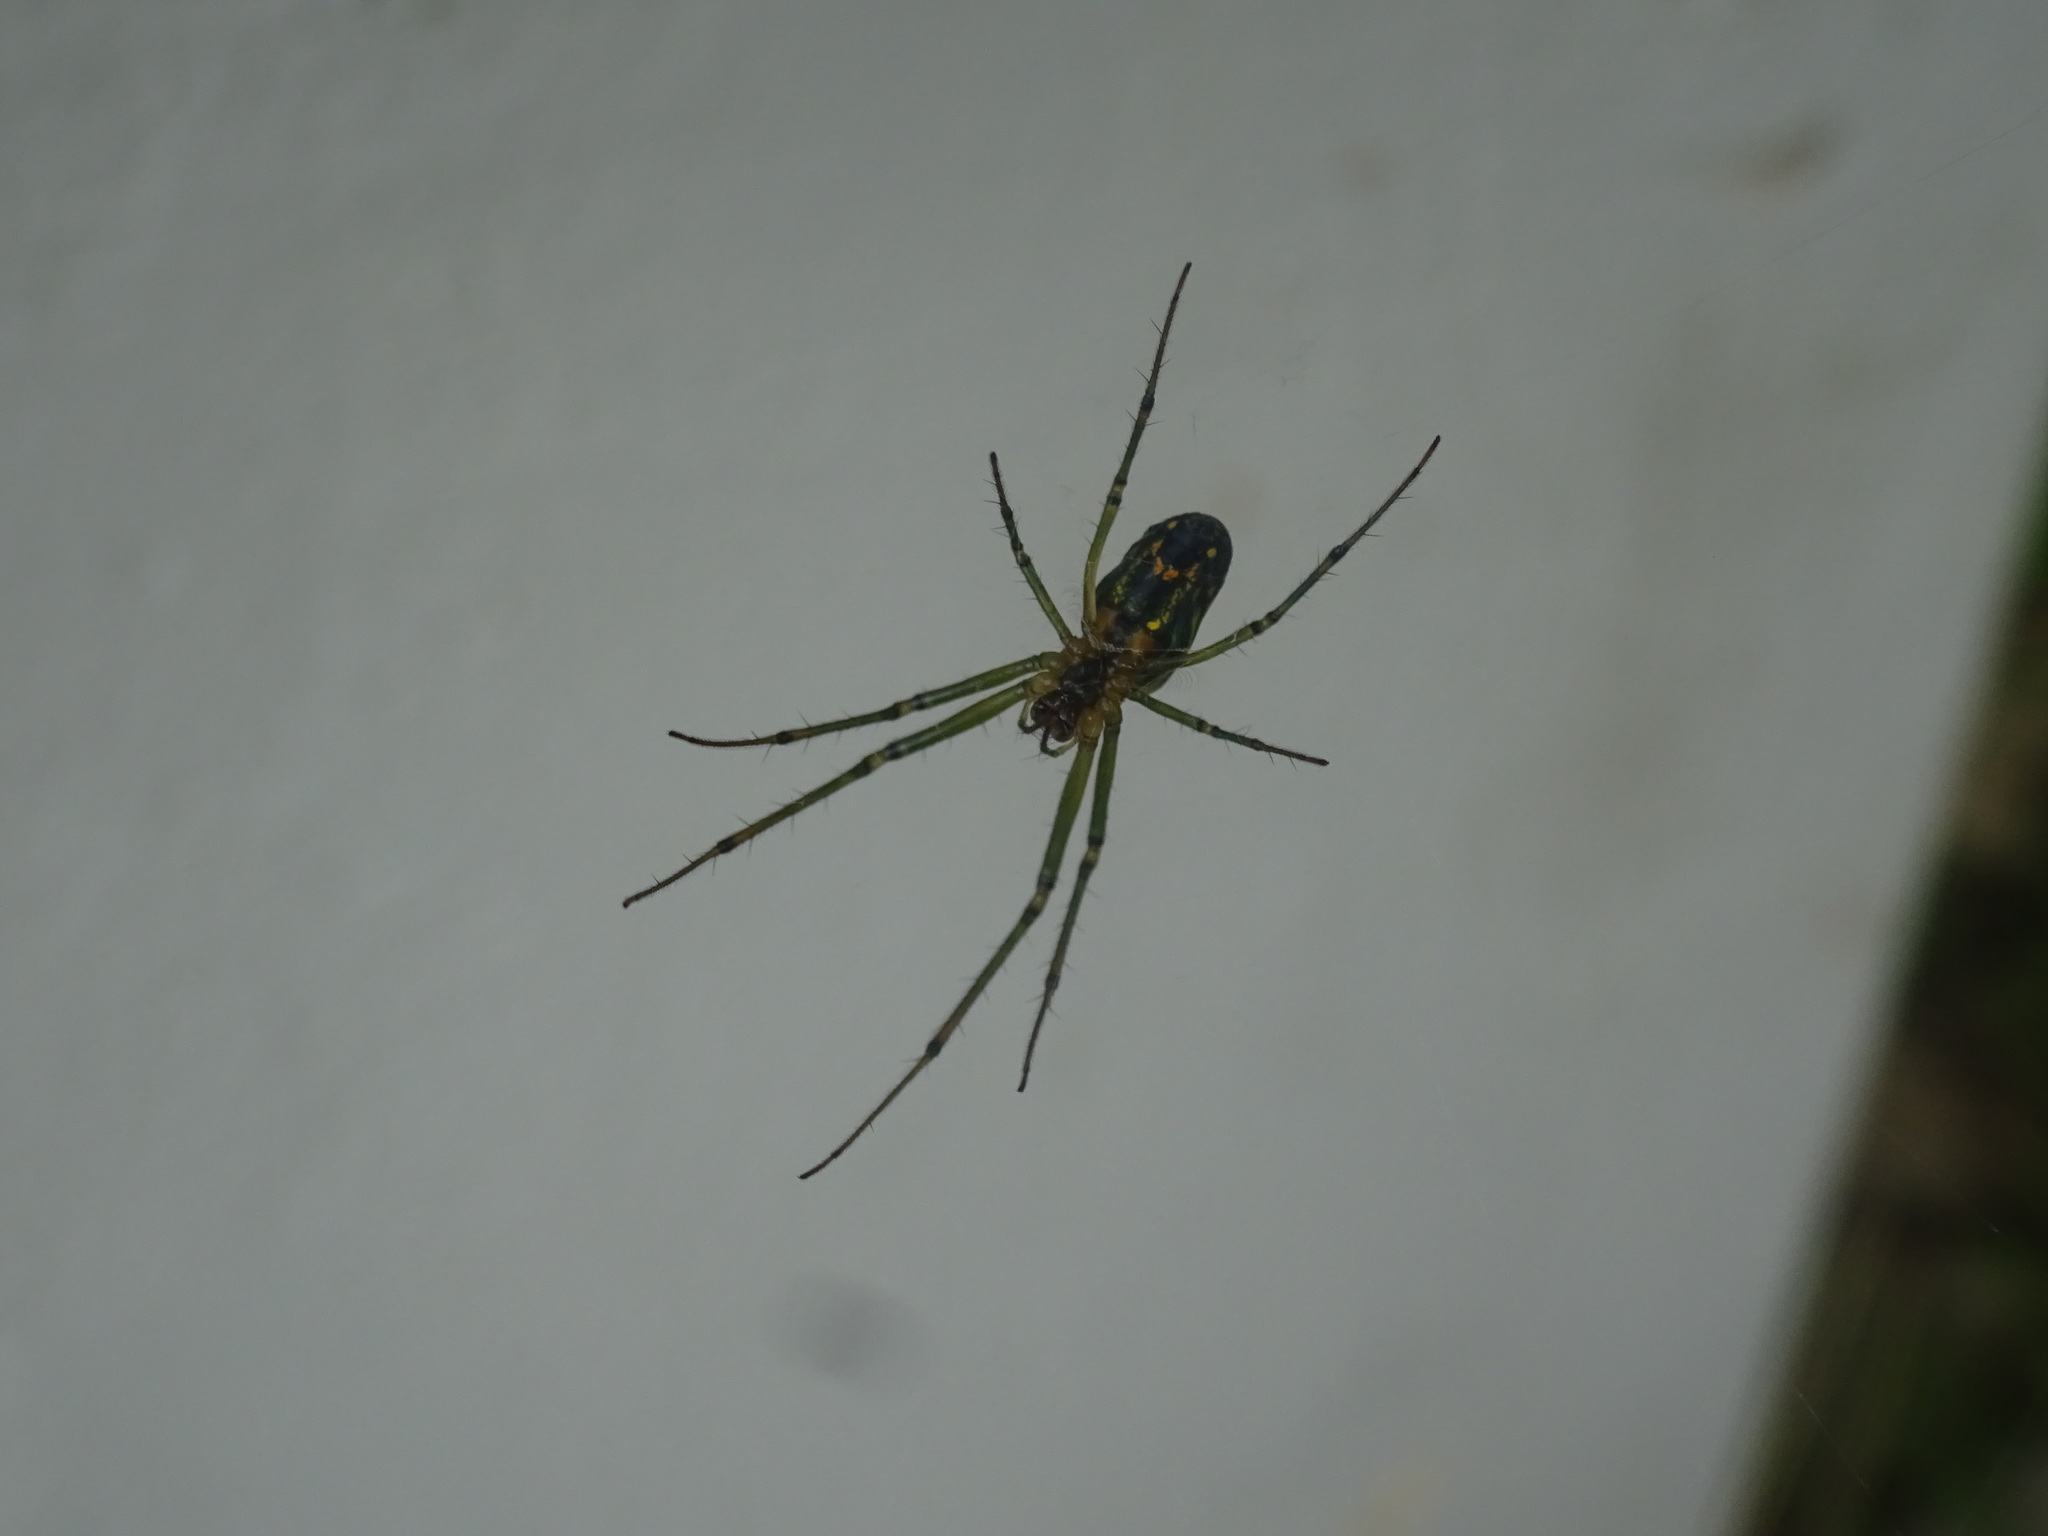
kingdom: Animalia
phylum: Arthropoda
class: Arachnida
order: Araneae
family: Tetragnathidae
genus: Leucauge
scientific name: Leucauge venusta
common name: Longjawed orb weavers
